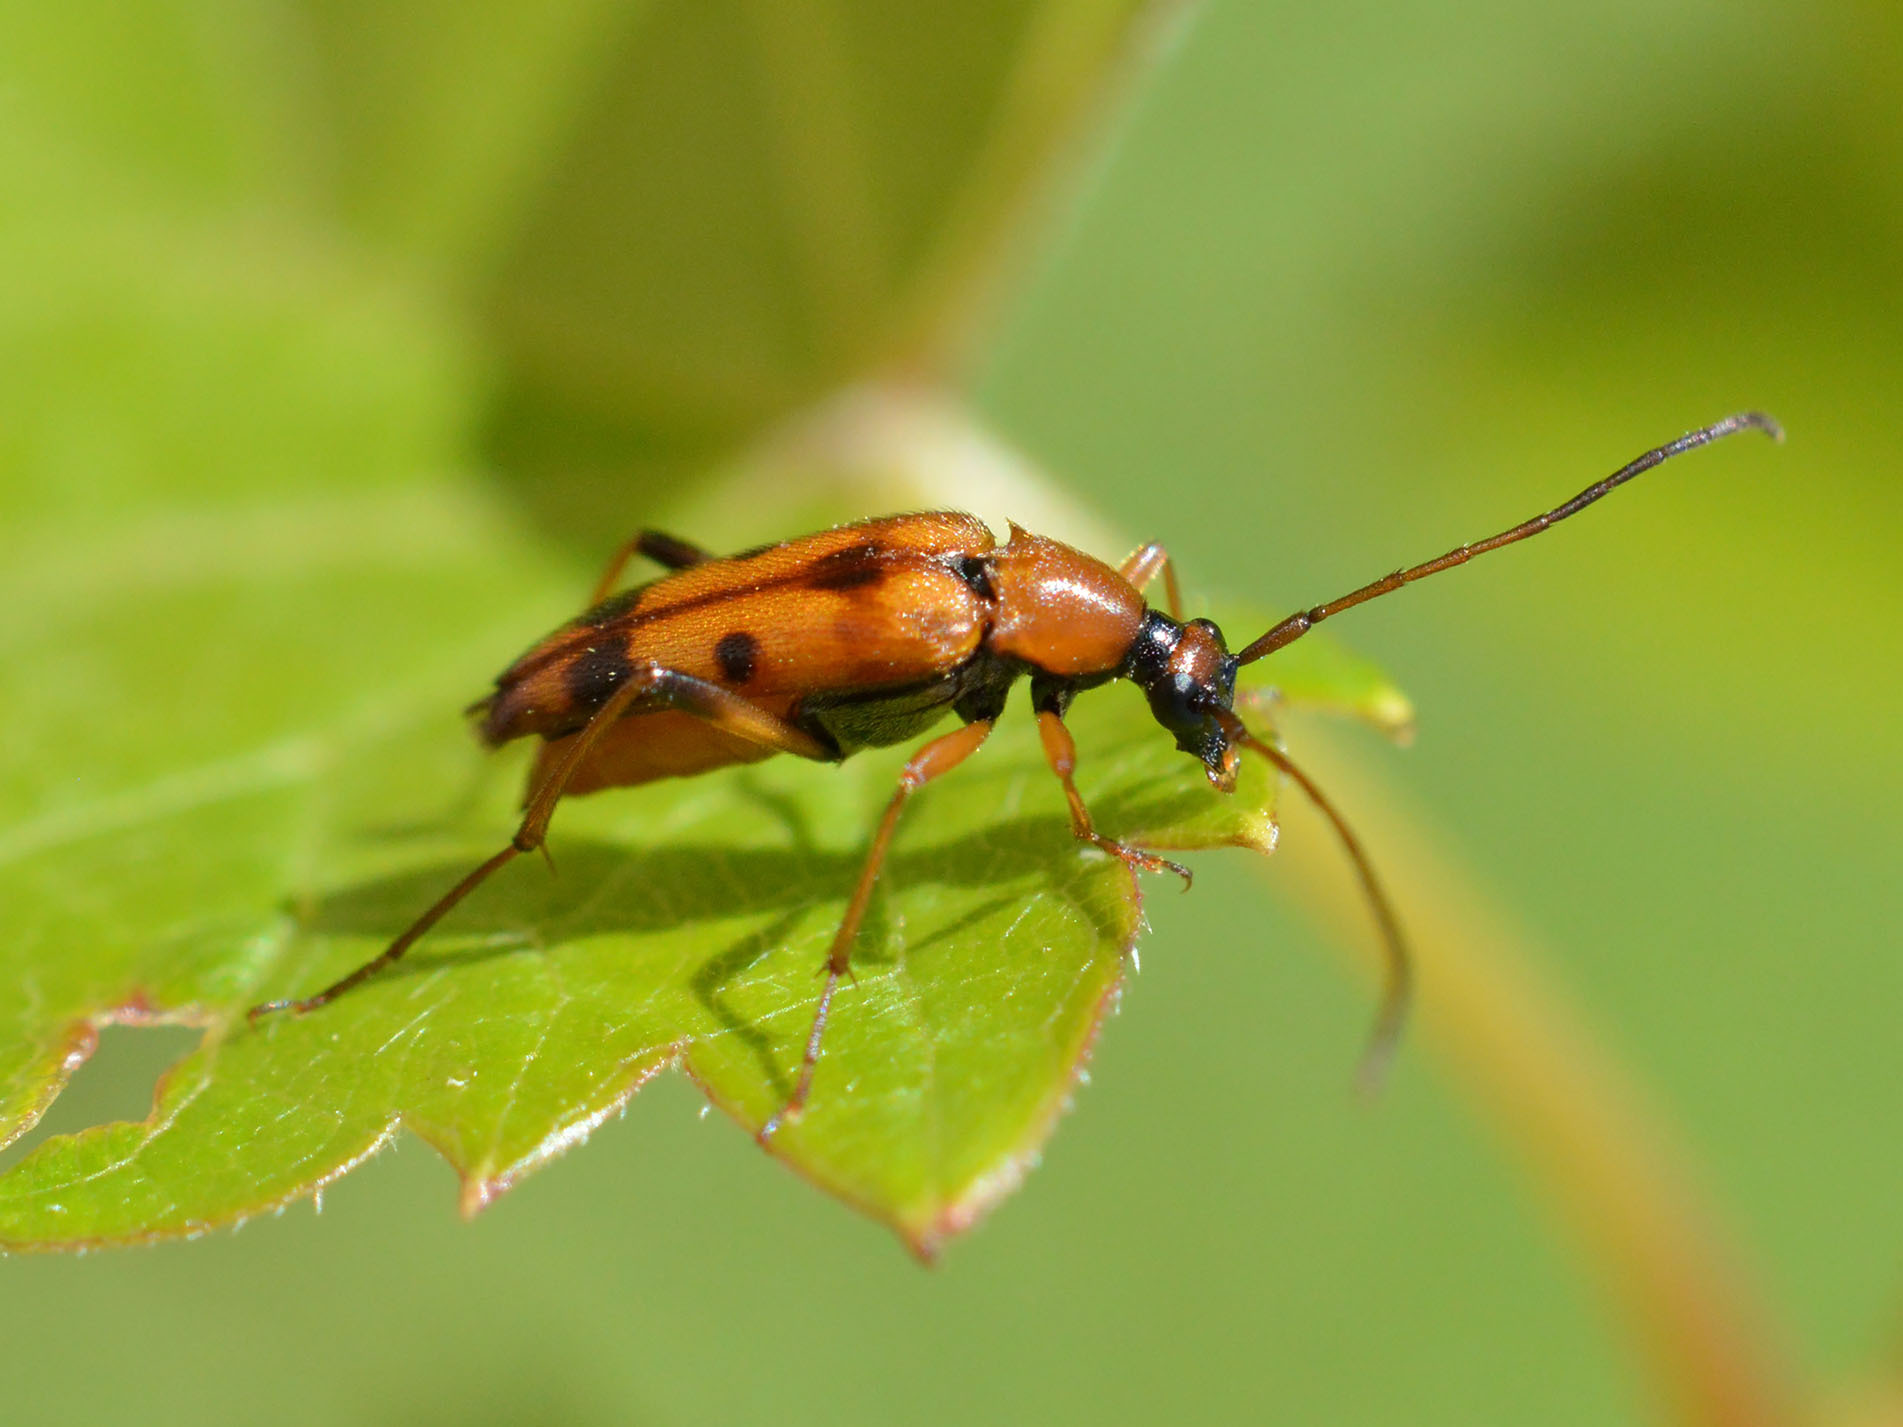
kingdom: Animalia
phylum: Arthropoda
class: Insecta
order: Coleoptera
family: Cerambycidae
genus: Stenurella
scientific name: Stenurella septempunctata
